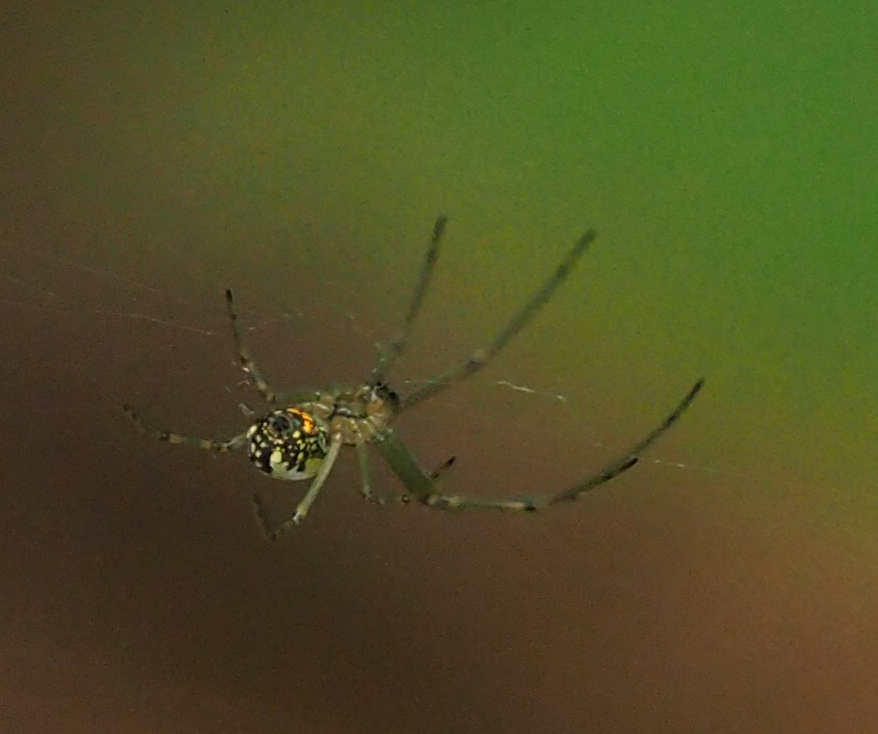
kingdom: Animalia
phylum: Arthropoda
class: Arachnida
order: Araneae
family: Tetragnathidae
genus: Leucauge
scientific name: Leucauge venusta
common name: Longjawed orb weavers
